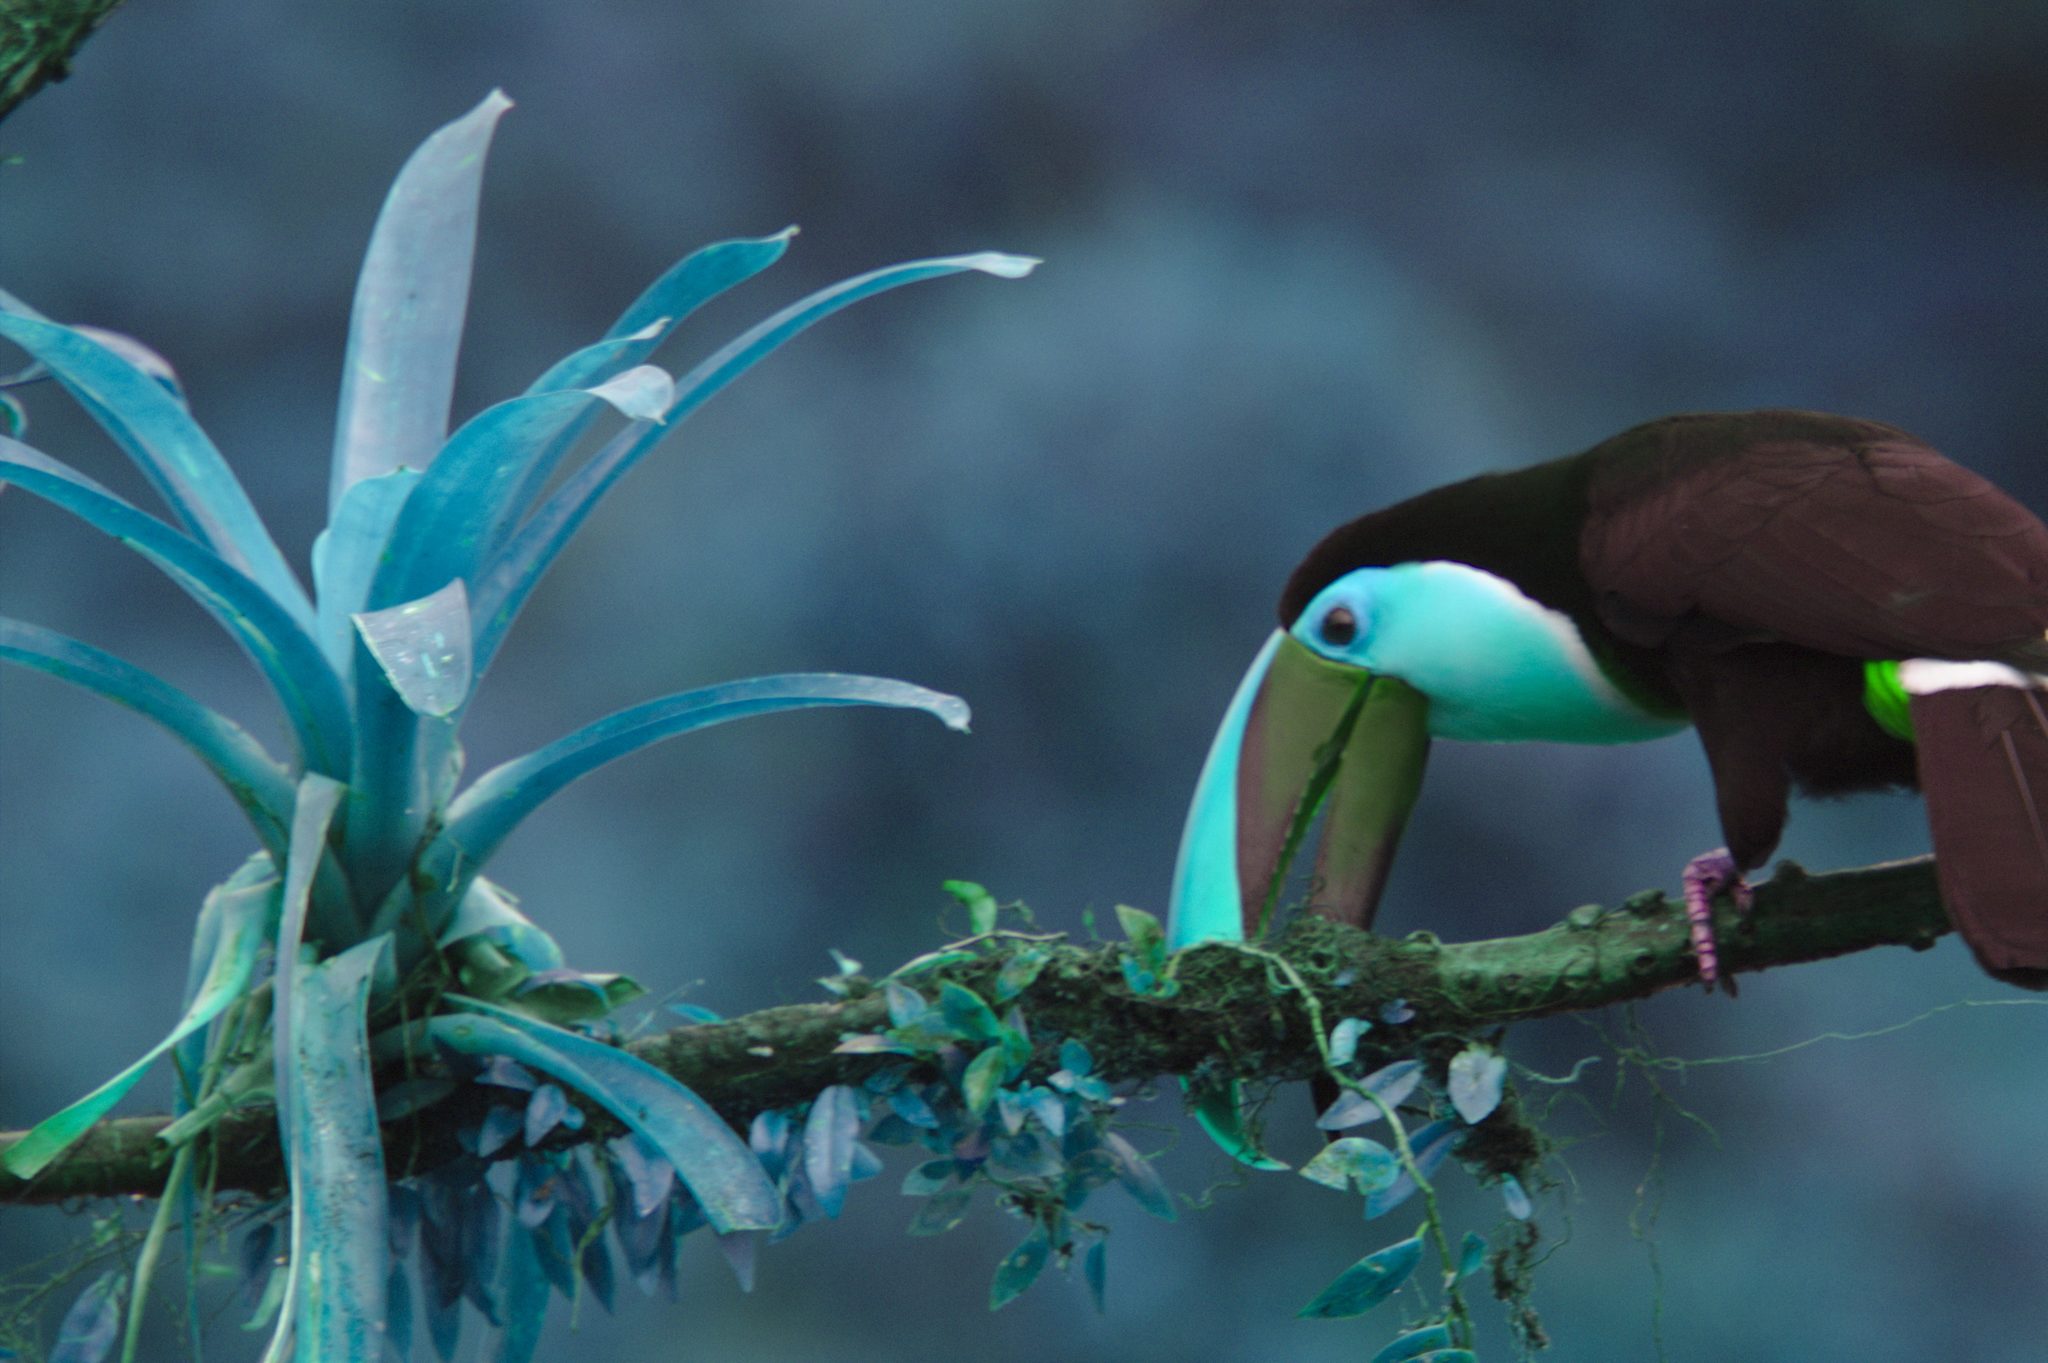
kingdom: Animalia
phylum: Chordata
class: Aves
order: Piciformes
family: Ramphastidae
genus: Ramphastos
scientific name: Ramphastos ambiguus
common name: Yellow-throated toucan
